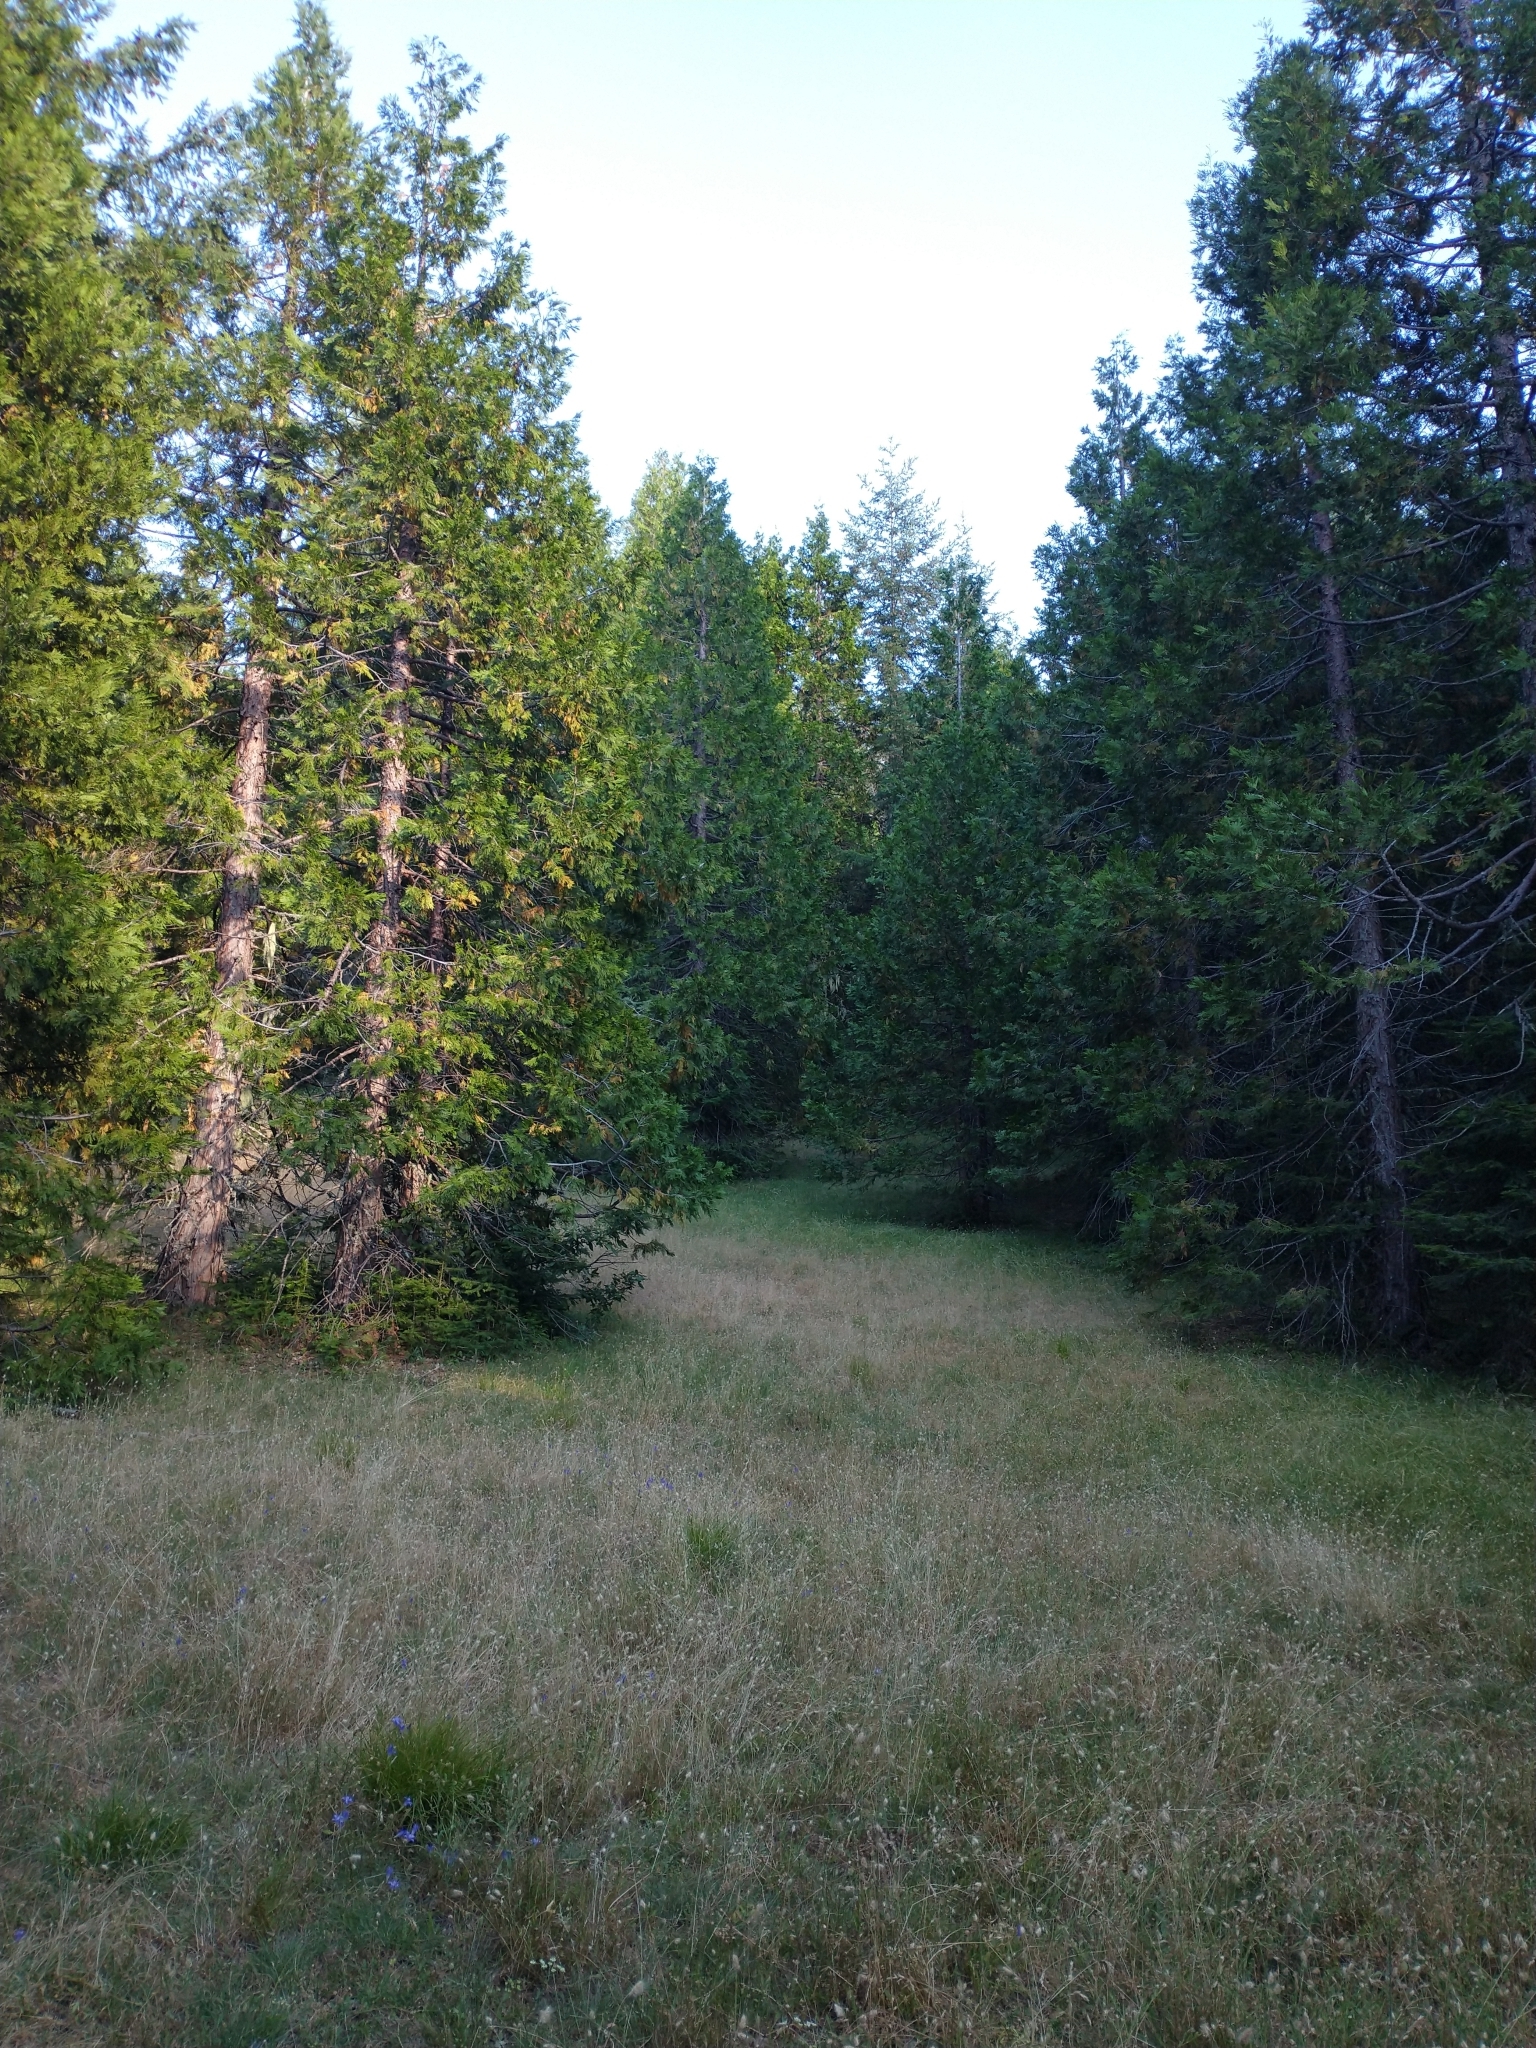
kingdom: Plantae
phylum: Tracheophyta
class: Pinopsida
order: Pinales
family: Cupressaceae
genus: Calocedrus
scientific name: Calocedrus decurrens
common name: Californian incense-cedar
